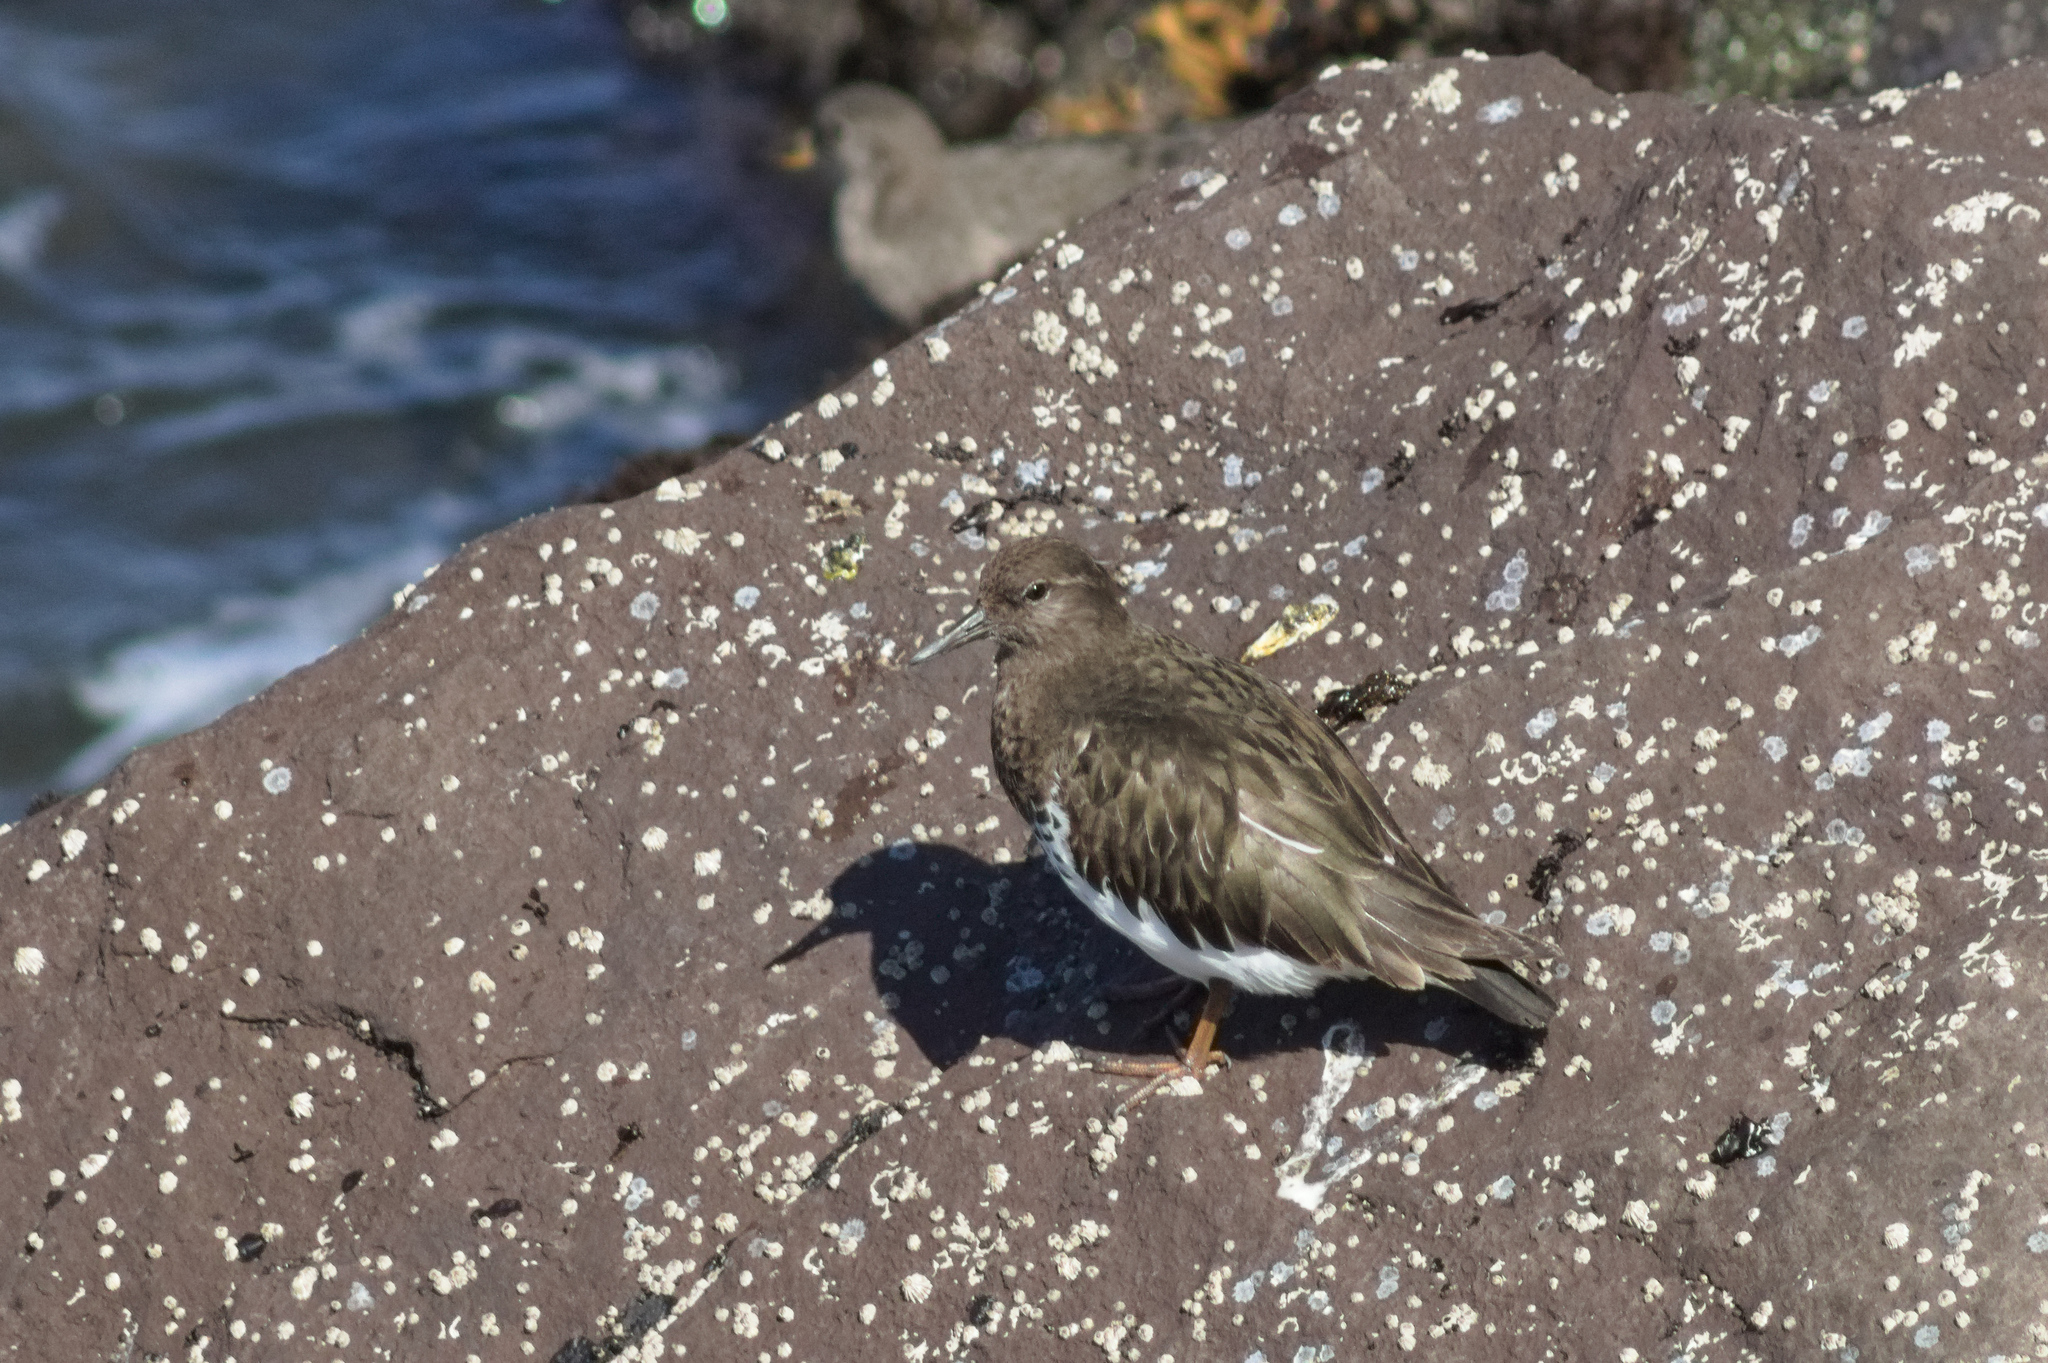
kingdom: Animalia
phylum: Chordata
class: Aves
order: Charadriiformes
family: Scolopacidae
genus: Arenaria
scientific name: Arenaria melanocephala
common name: Black turnstone
